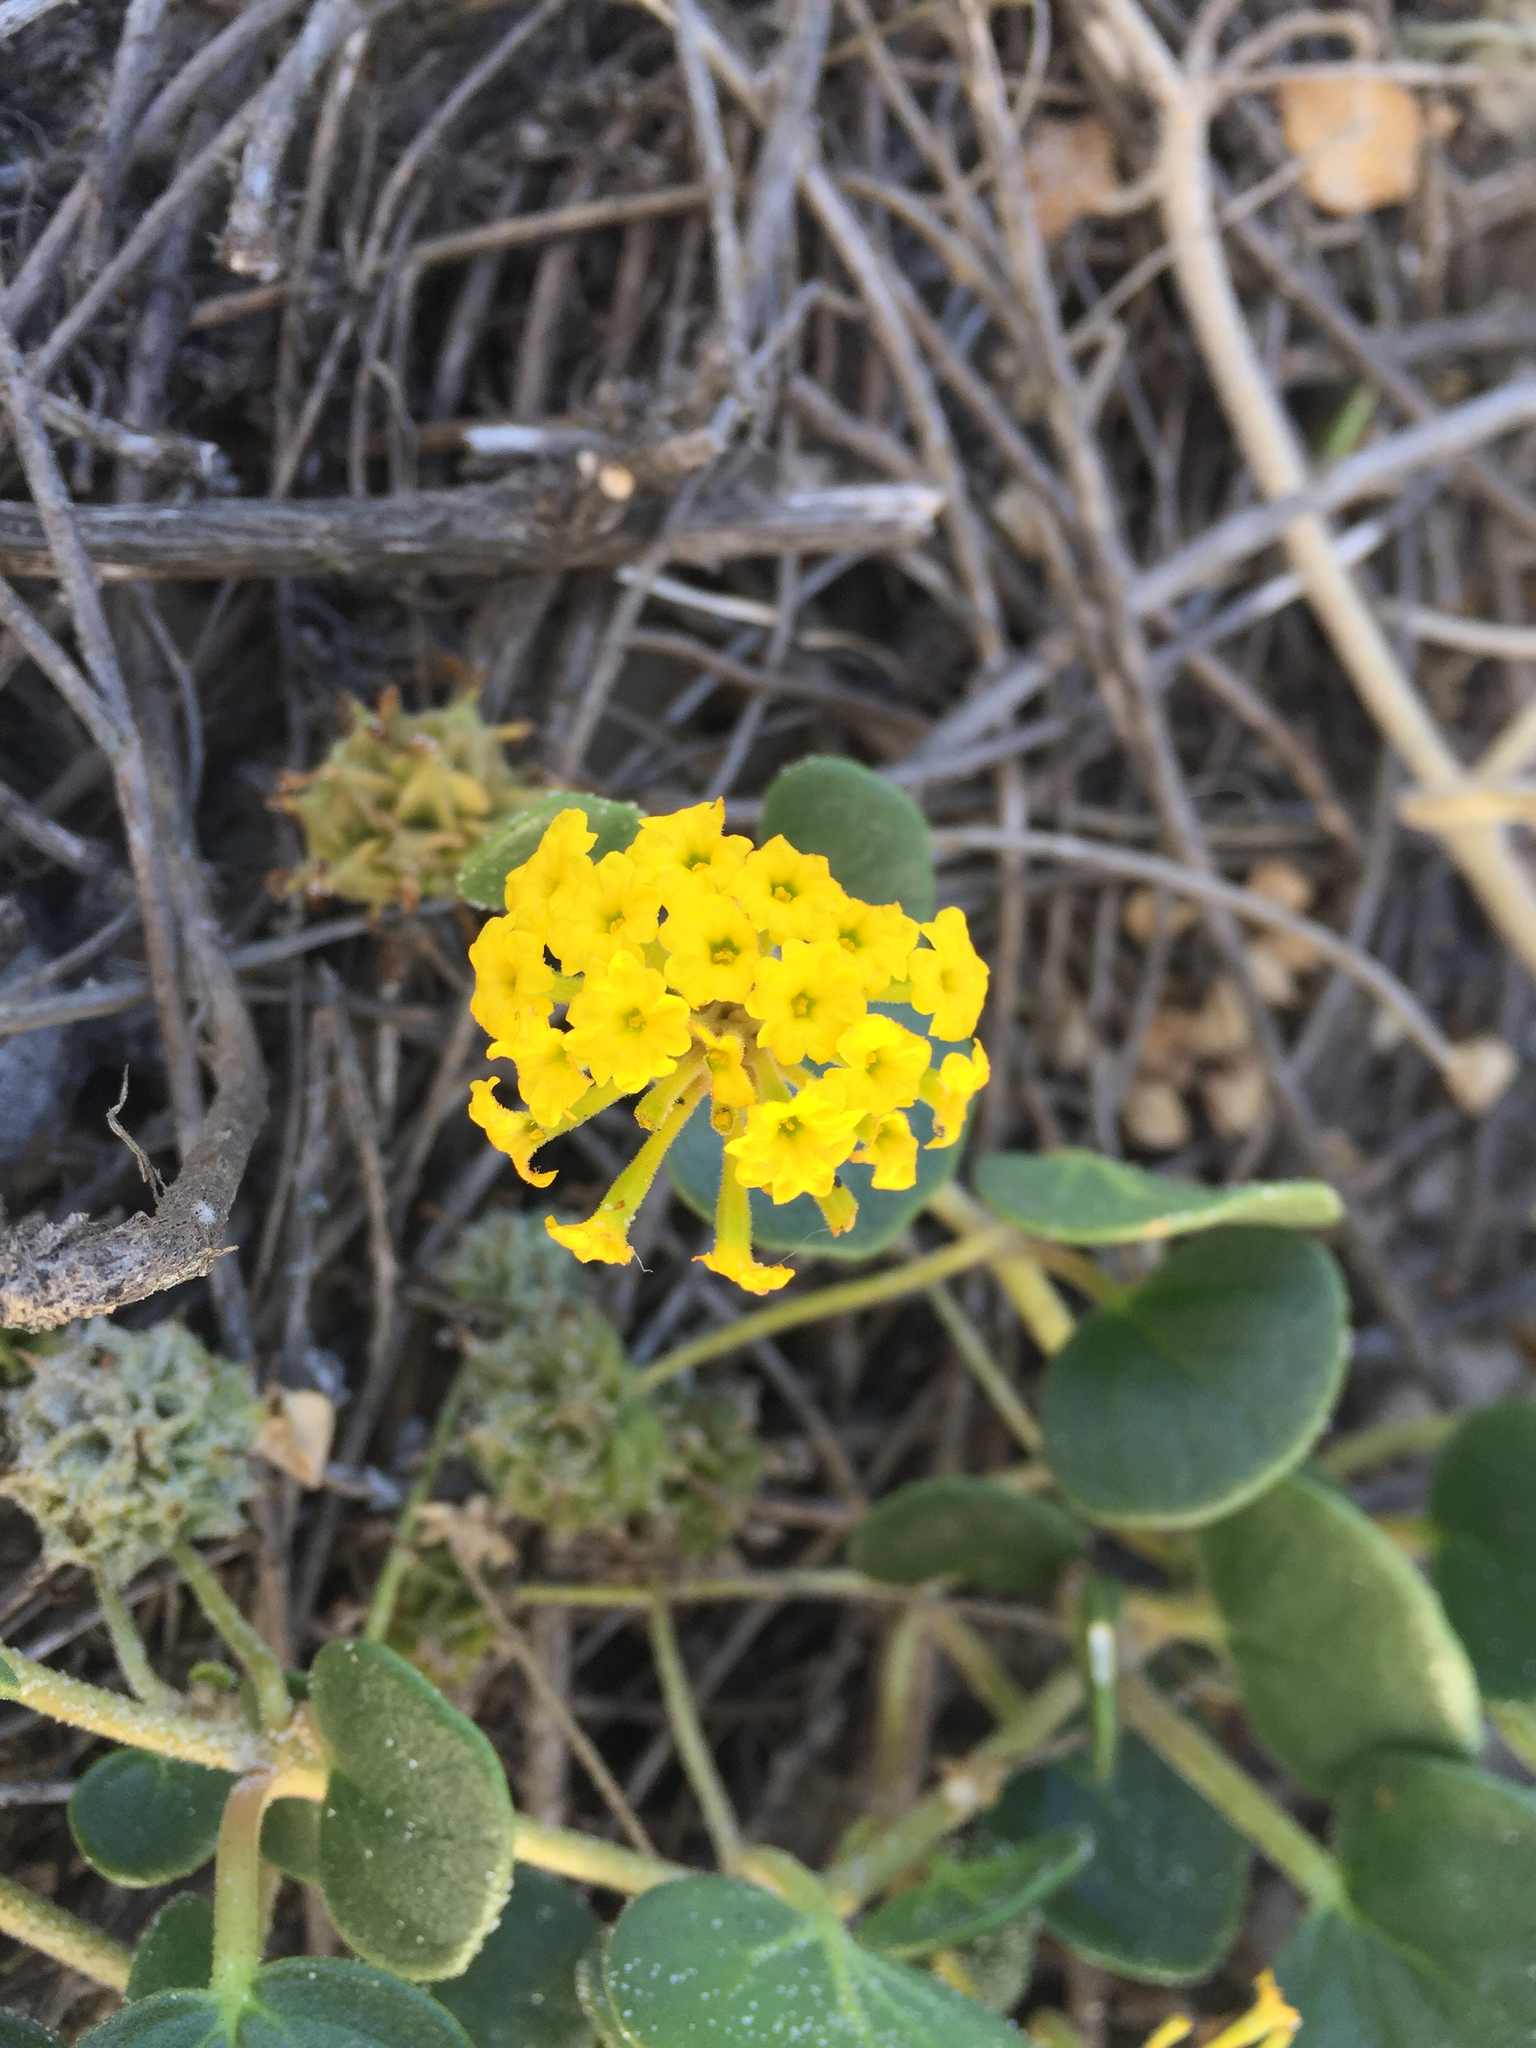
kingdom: Plantae
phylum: Tracheophyta
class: Magnoliopsida
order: Caryophyllales
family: Nyctaginaceae
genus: Abronia
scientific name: Abronia latifolia
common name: Yellow sand-verbena
